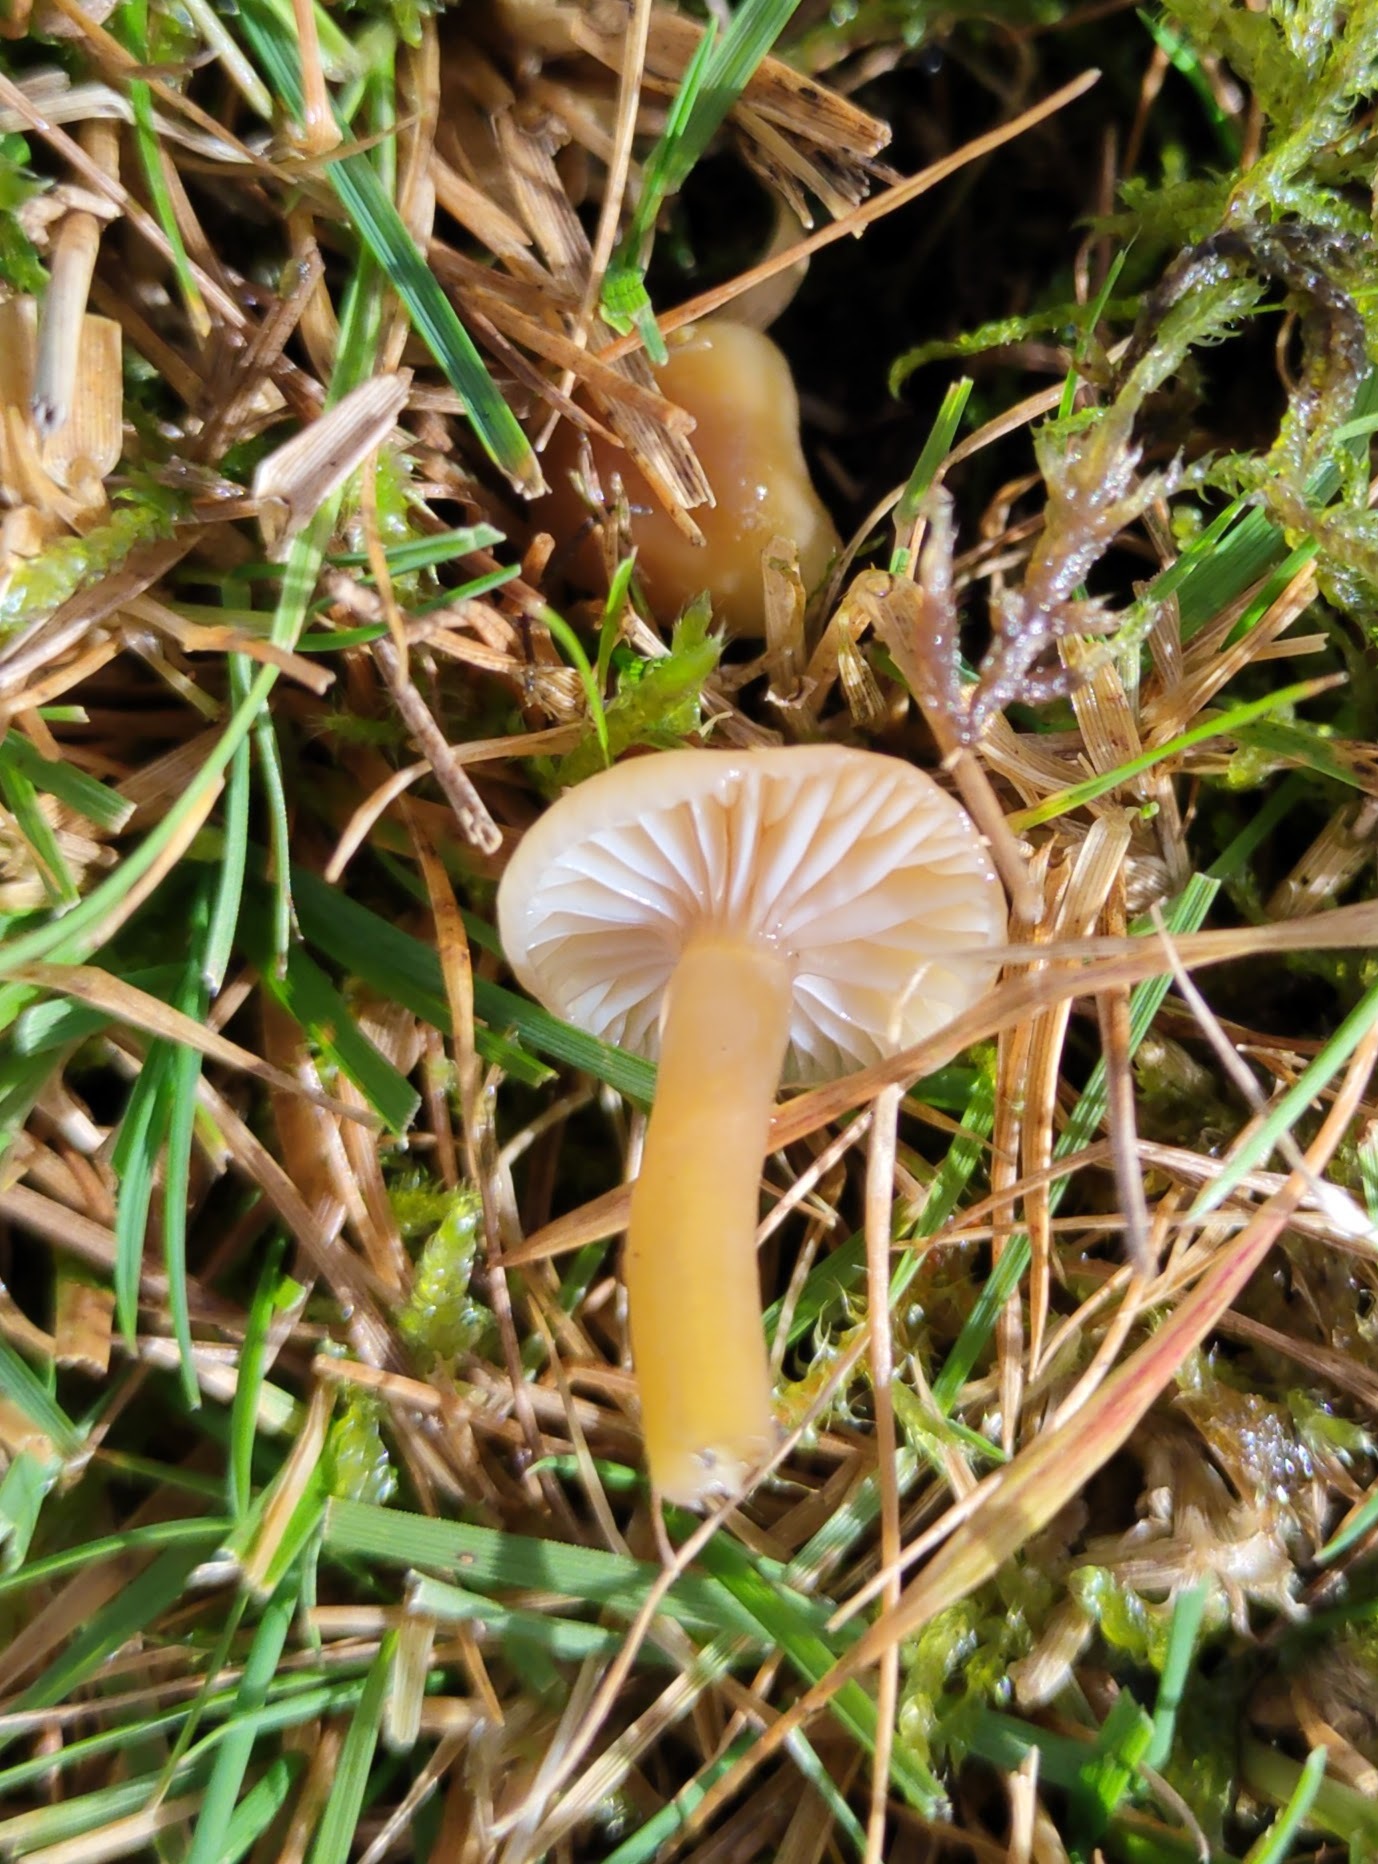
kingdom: Fungi
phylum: Basidiomycota
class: Agaricomycetes
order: Agaricales
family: Hygrophoraceae
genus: Gliophorus
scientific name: Gliophorus laetus
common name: Heath waxcap
